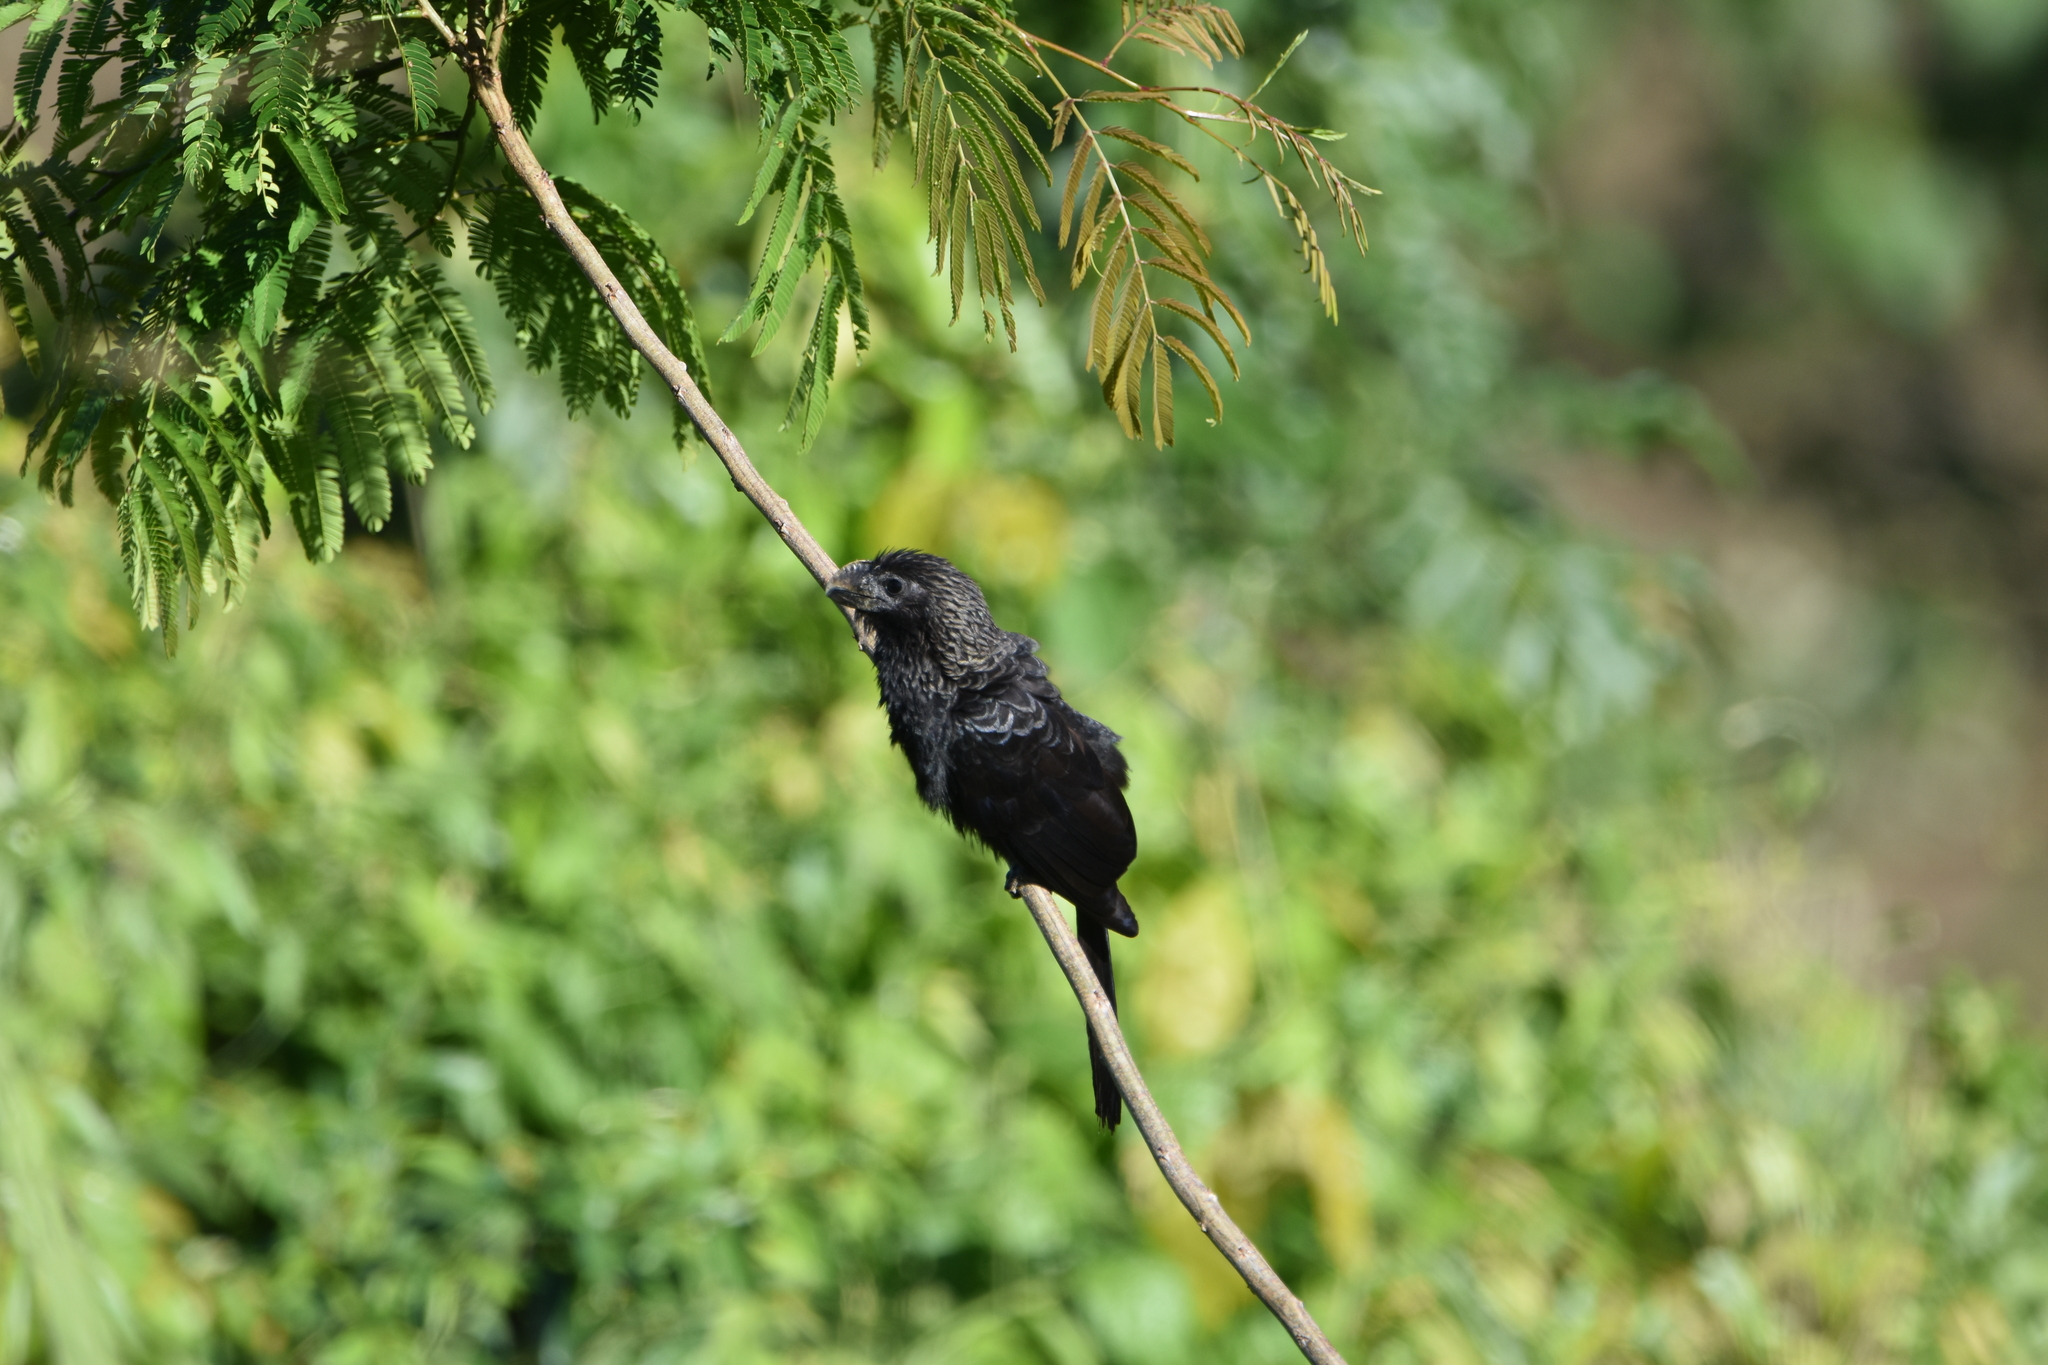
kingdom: Animalia
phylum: Chordata
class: Aves
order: Cuculiformes
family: Cuculidae
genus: Crotophaga
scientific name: Crotophaga ani
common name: Smooth-billed ani
